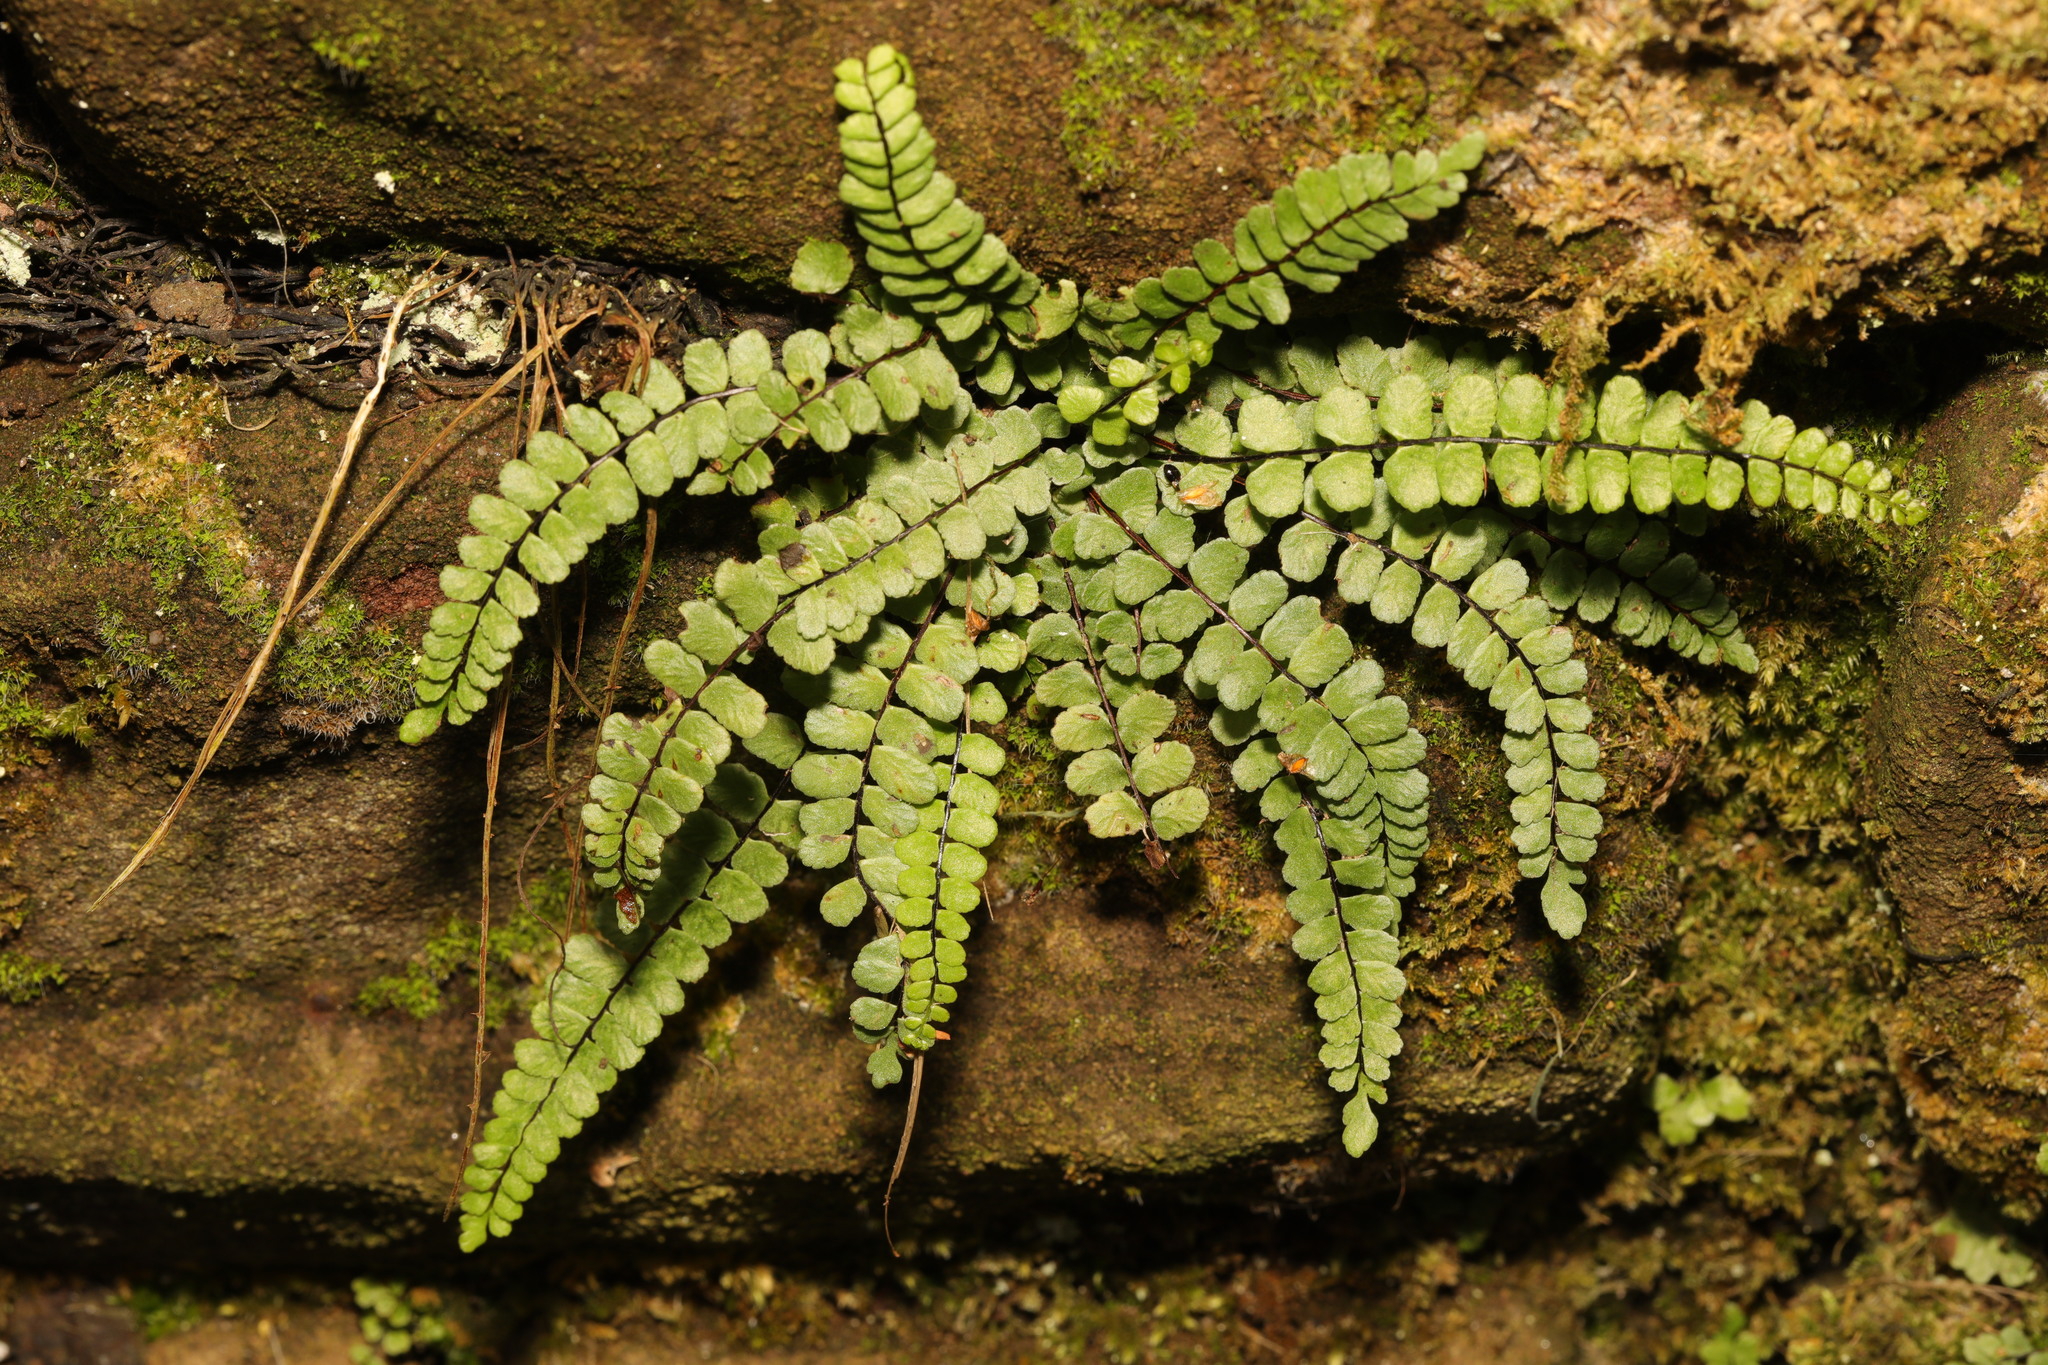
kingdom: Plantae
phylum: Tracheophyta
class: Polypodiopsida
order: Polypodiales
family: Aspleniaceae
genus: Asplenium
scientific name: Asplenium trichomanes
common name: Maidenhair spleenwort
